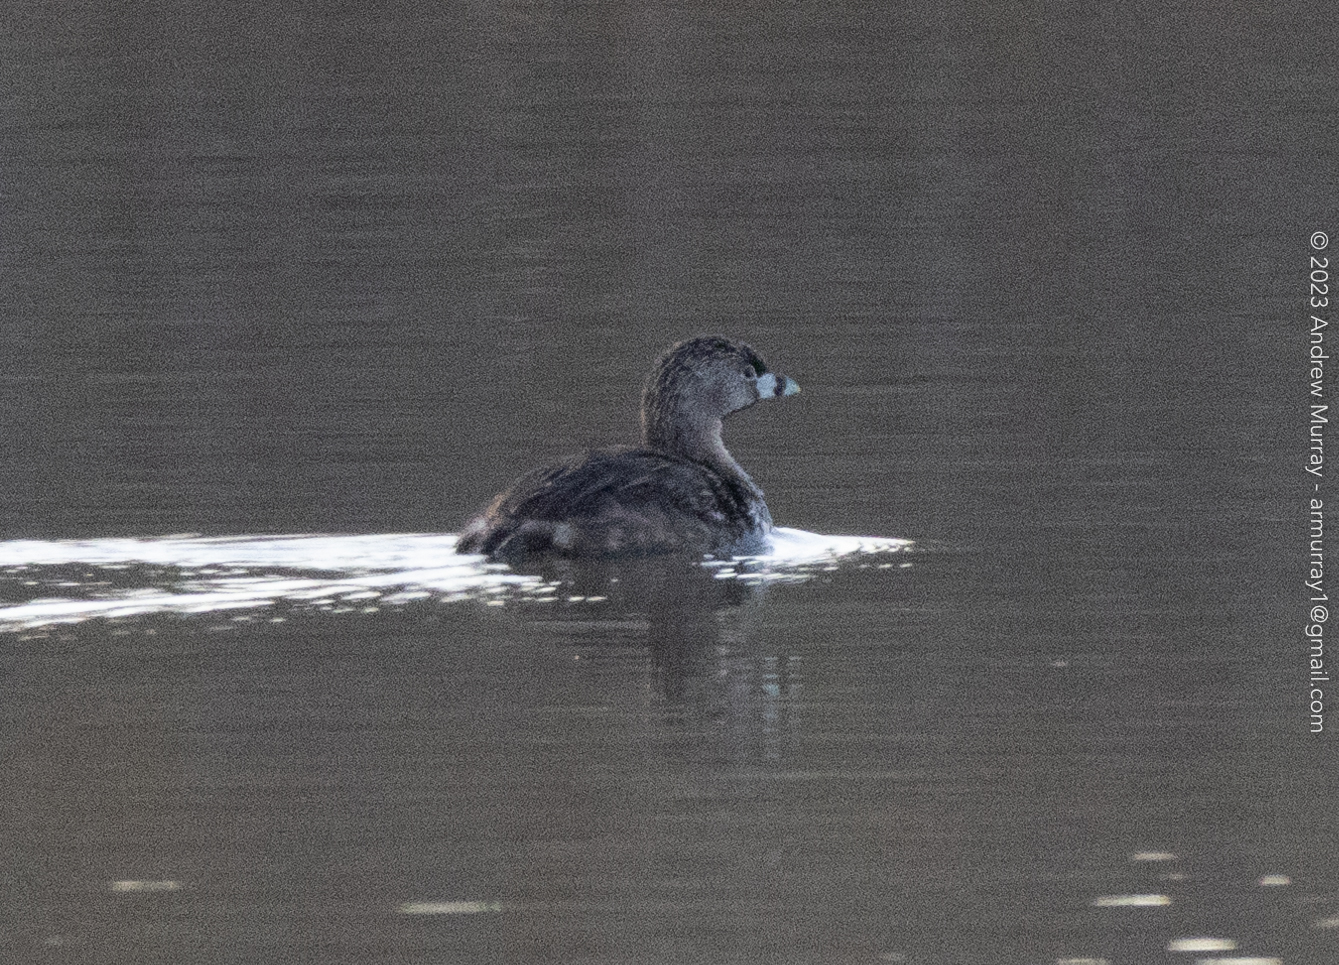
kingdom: Animalia
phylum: Chordata
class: Aves
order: Podicipediformes
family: Podicipedidae
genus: Podilymbus
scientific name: Podilymbus podiceps
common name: Pied-billed grebe
